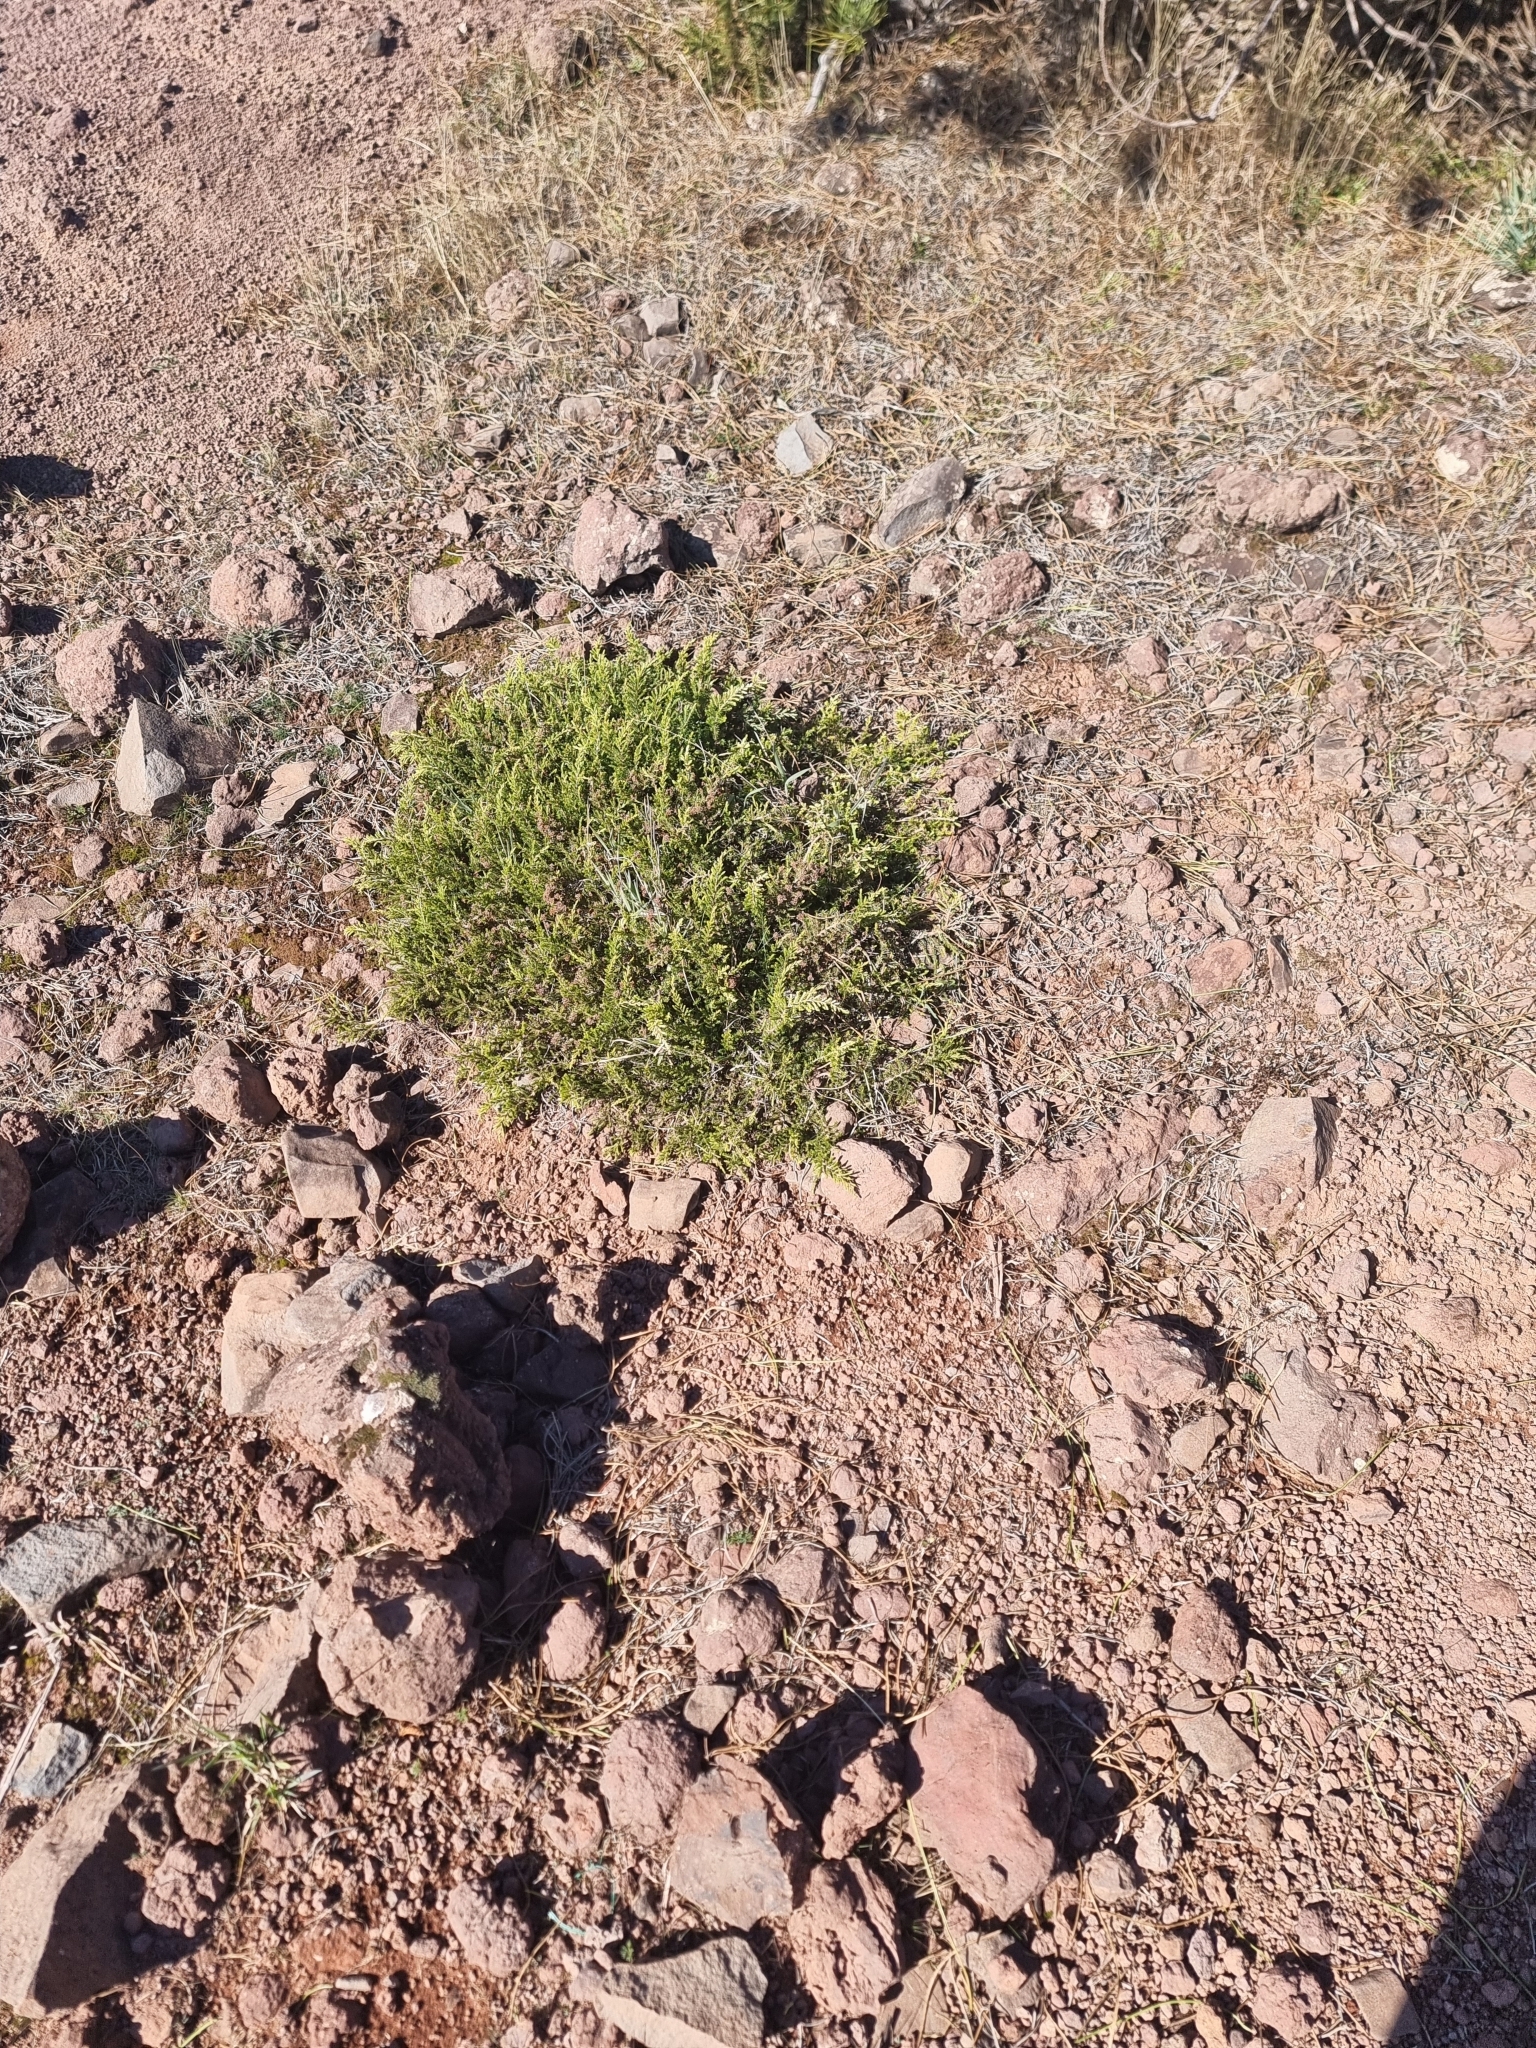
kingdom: Plantae
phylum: Tracheophyta
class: Magnoliopsida
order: Ericales
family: Ericaceae
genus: Erica
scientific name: Erica maderensis
